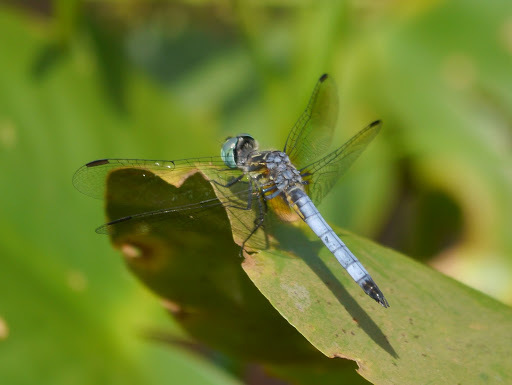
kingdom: Animalia
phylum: Arthropoda
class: Insecta
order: Odonata
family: Libellulidae
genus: Pachydiplax
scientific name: Pachydiplax longipennis
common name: Blue dasher
